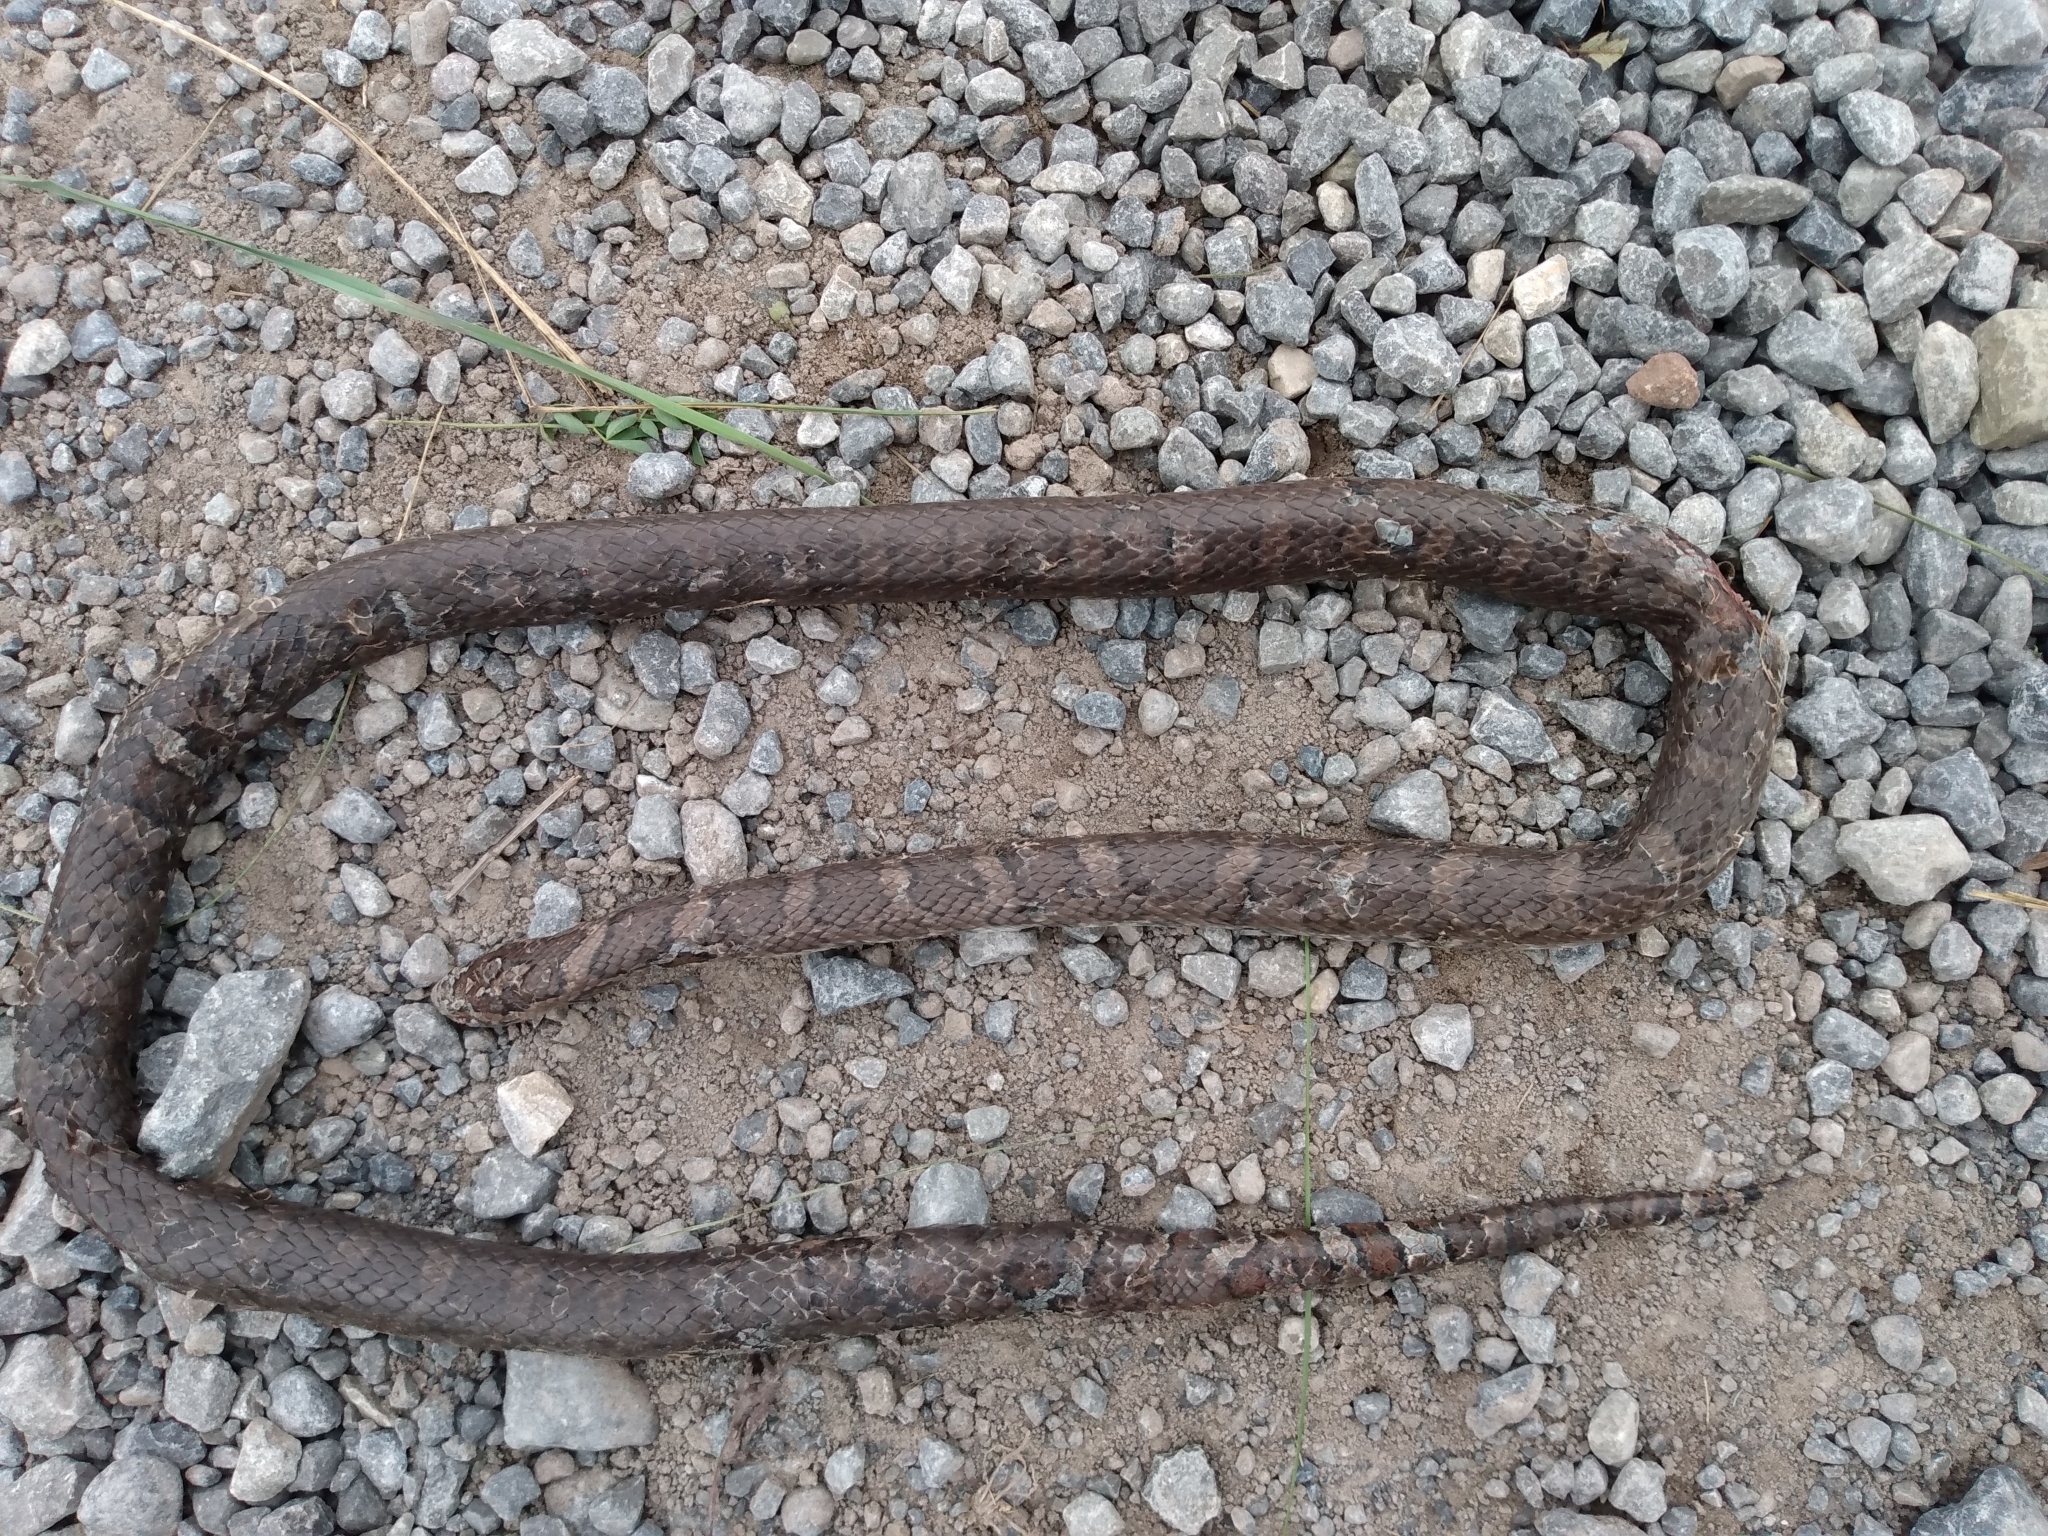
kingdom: Animalia
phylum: Chordata
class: Squamata
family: Colubridae
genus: Lampropeltis
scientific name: Lampropeltis triangulum
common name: Eastern milksnake
